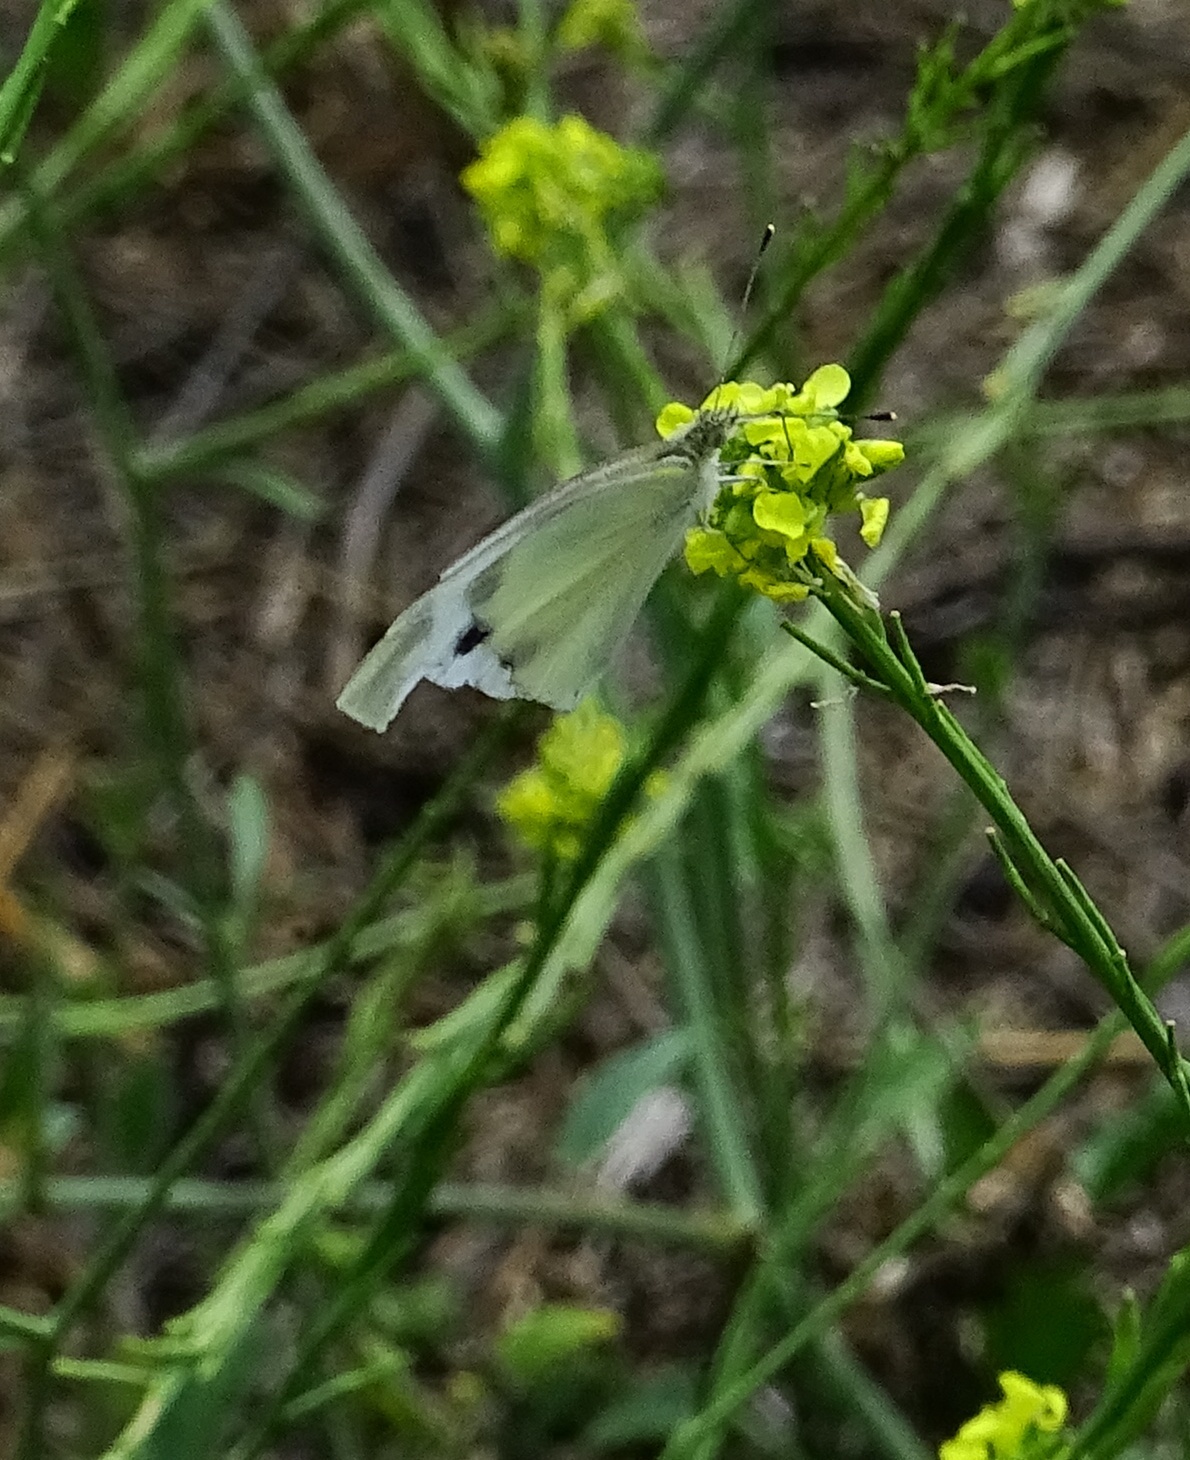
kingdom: Animalia
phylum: Arthropoda
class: Insecta
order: Lepidoptera
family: Pieridae
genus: Pieris
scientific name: Pieris rapae
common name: Small white
